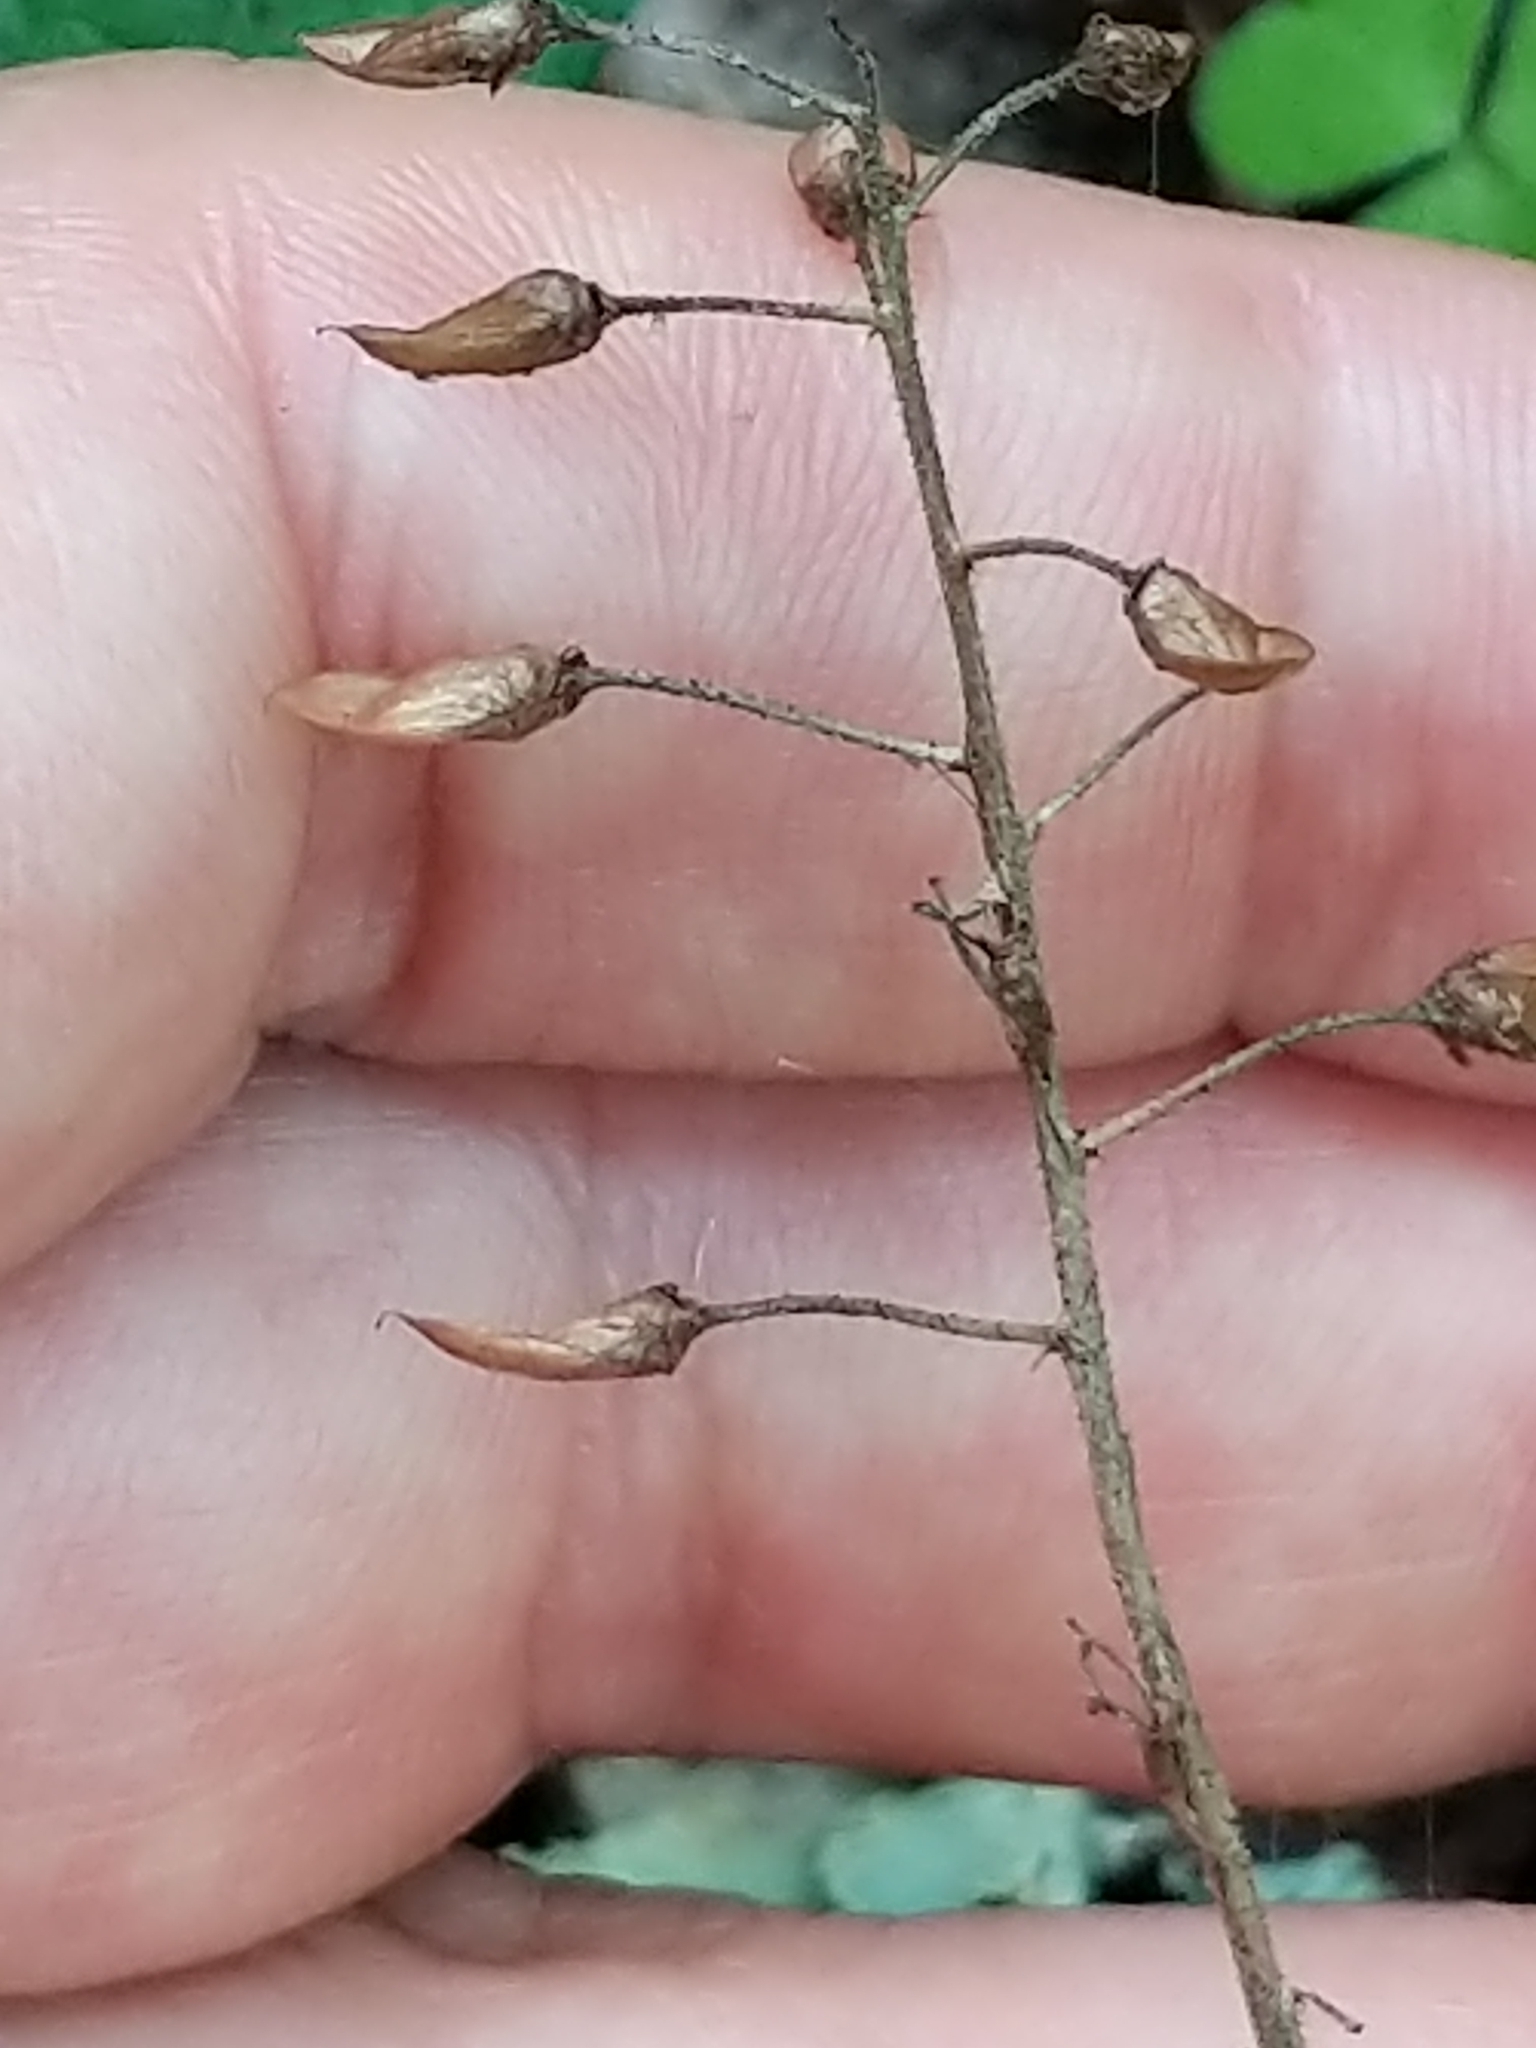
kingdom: Plantae
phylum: Tracheophyta
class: Magnoliopsida
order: Saxifragales
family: Saxifragaceae
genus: Tiarella
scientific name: Tiarella stolonifera
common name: Stoloniferous foamflower
